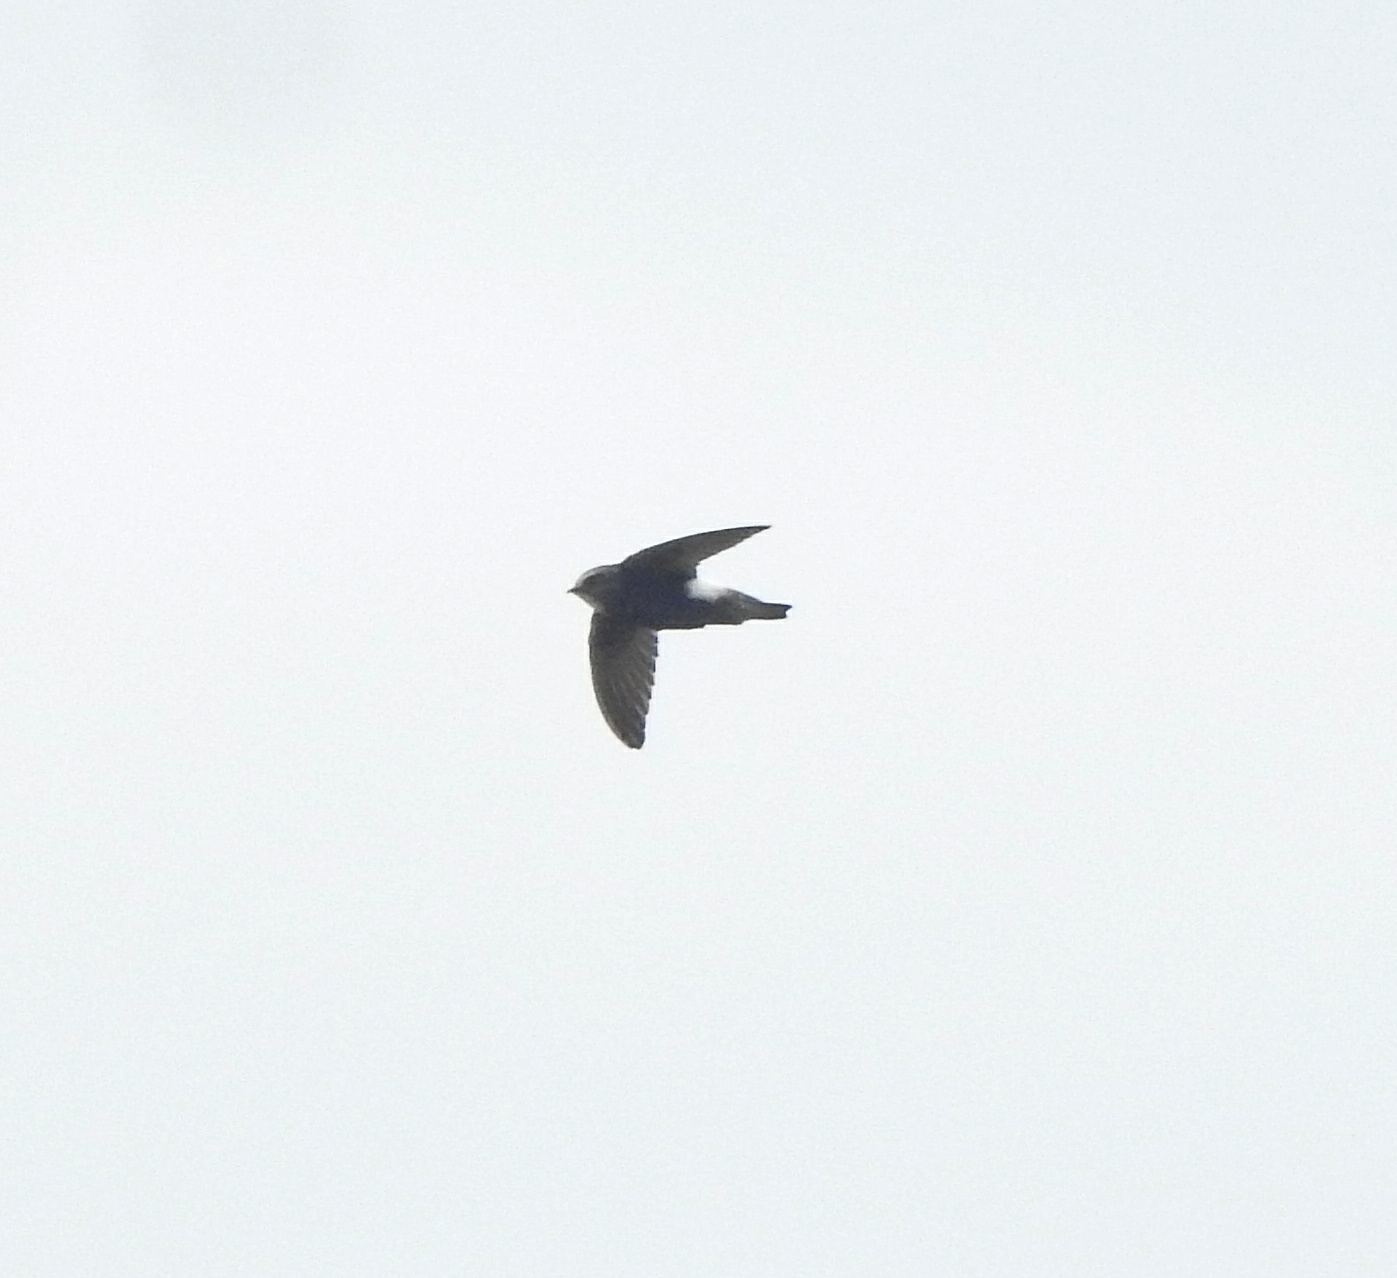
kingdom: Animalia
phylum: Chordata
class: Aves
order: Apodiformes
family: Apodidae
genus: Apus
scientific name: Apus affinis
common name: Little swift
